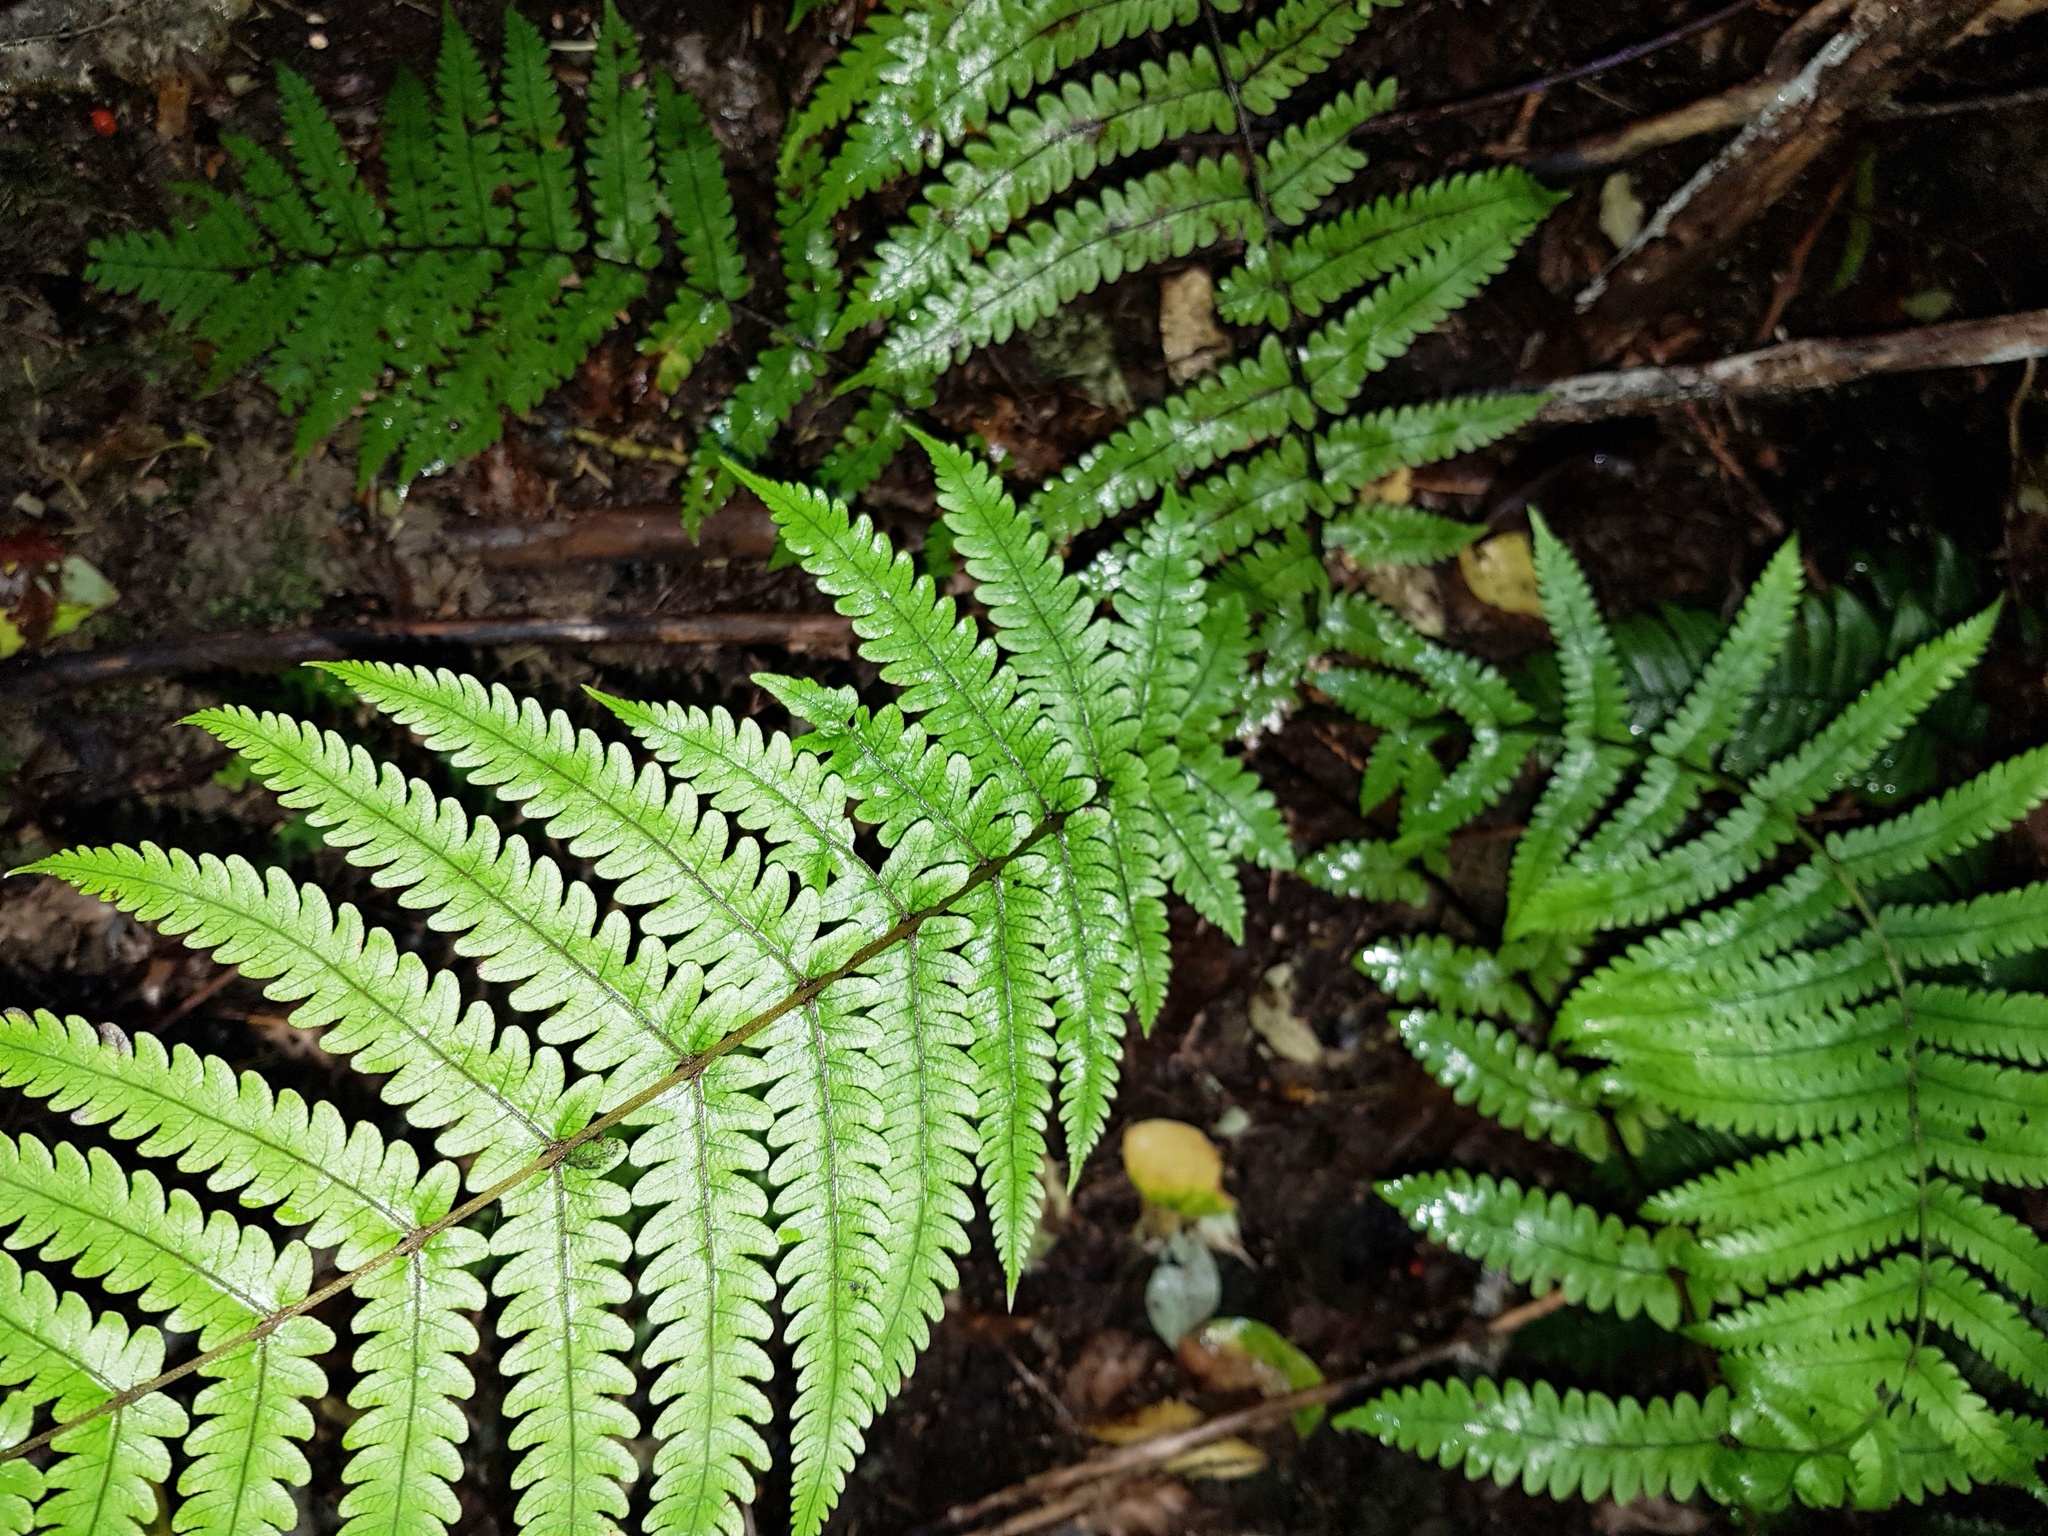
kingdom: Plantae
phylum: Tracheophyta
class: Polypodiopsida
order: Polypodiales
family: Thelypteridaceae
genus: Pakau
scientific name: Pakau pennigera
